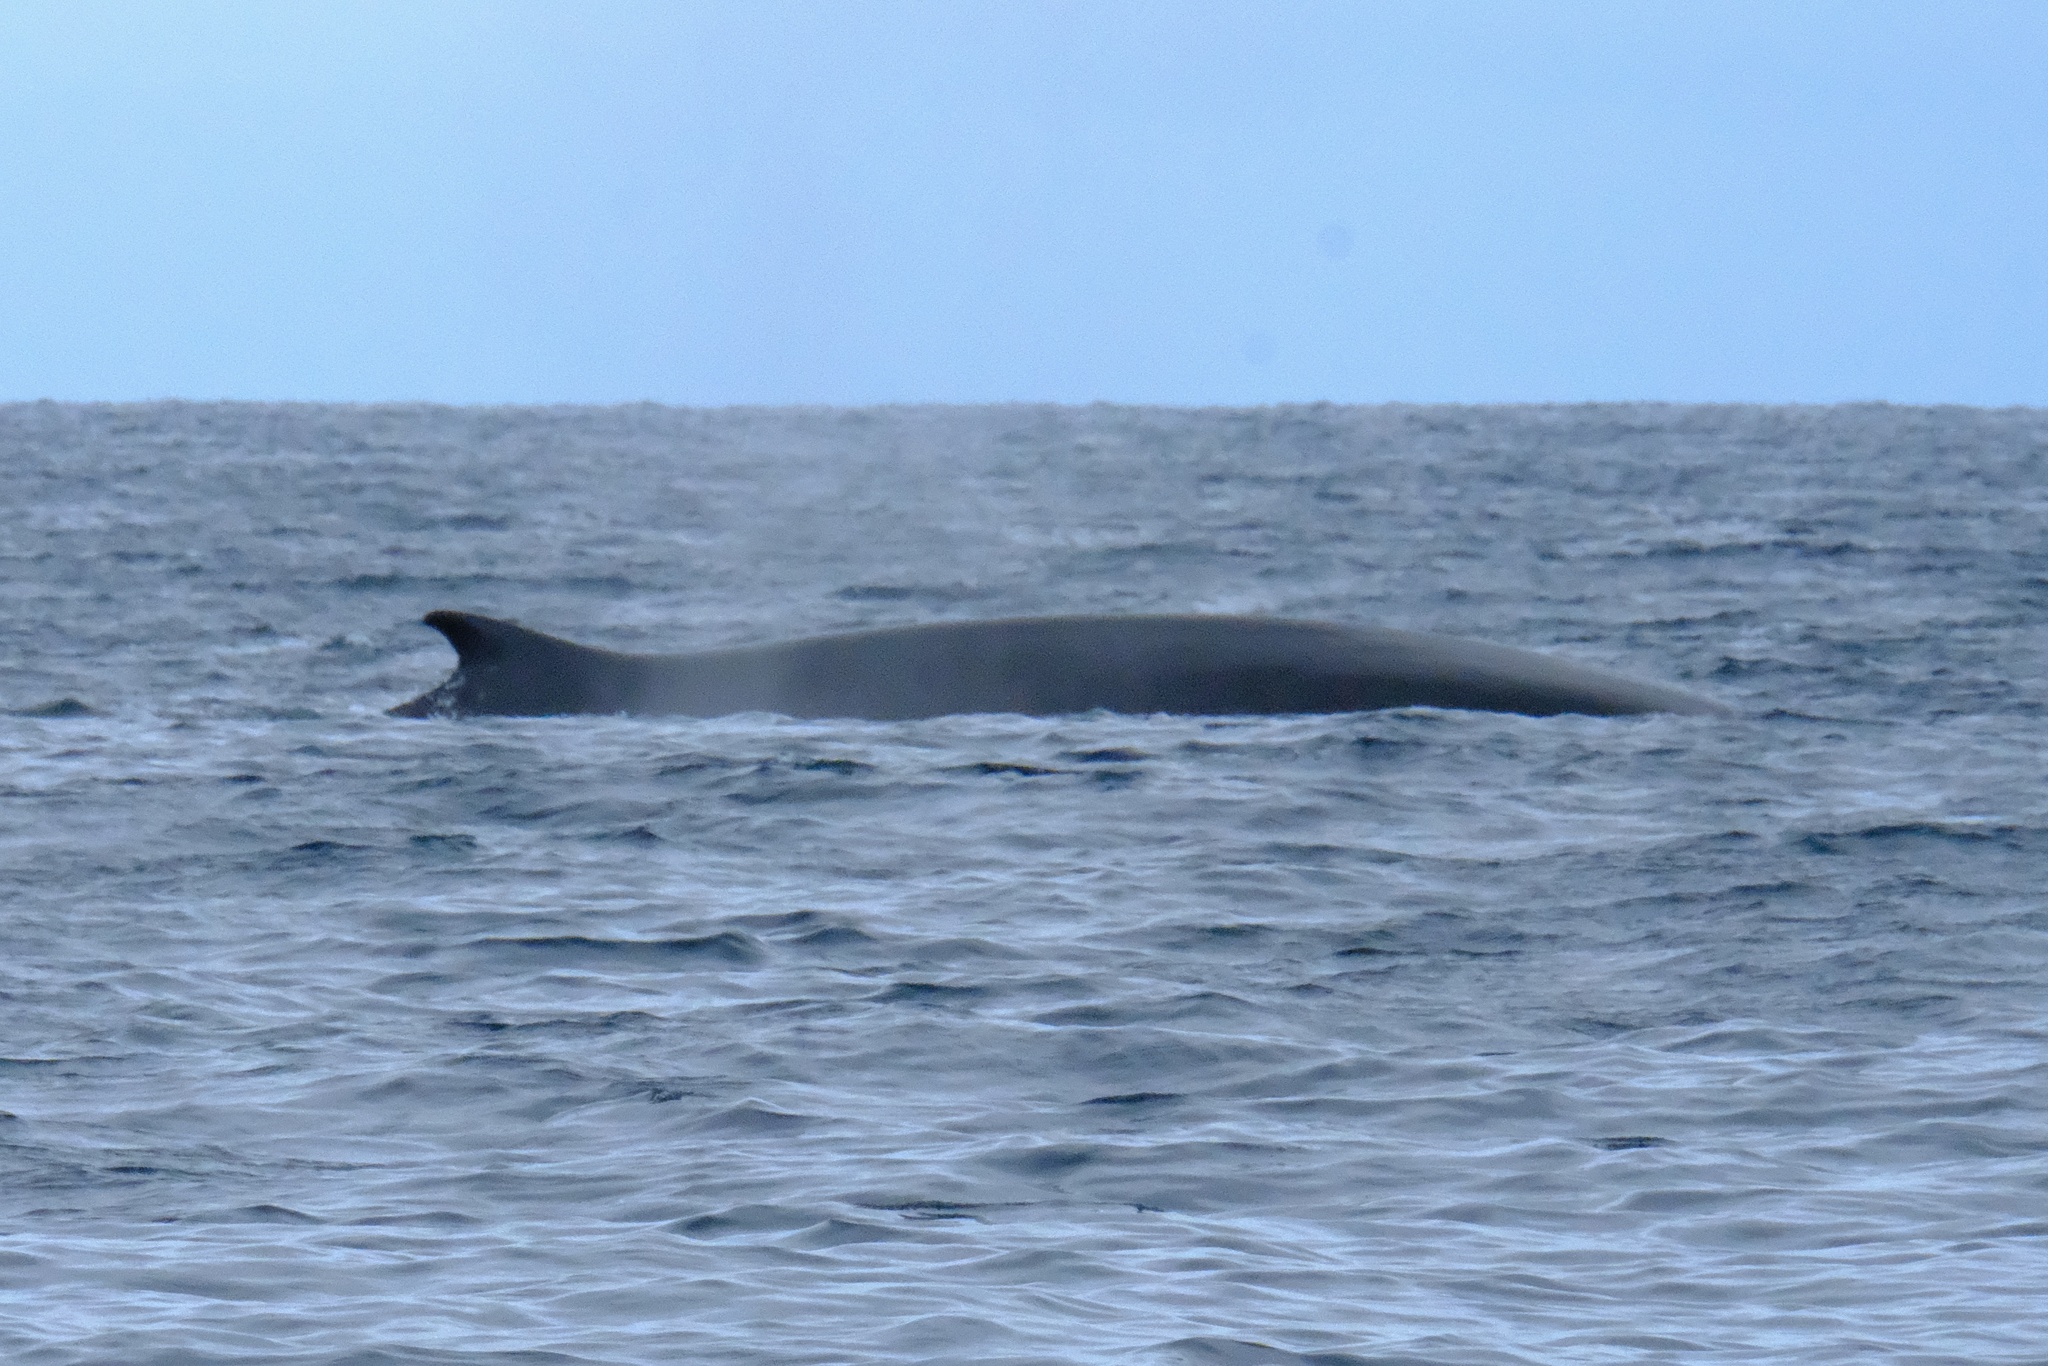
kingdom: Animalia
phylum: Chordata
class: Mammalia
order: Cetacea
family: Balaenopteridae
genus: Balaenoptera
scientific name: Balaenoptera physalus
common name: Fin whale
